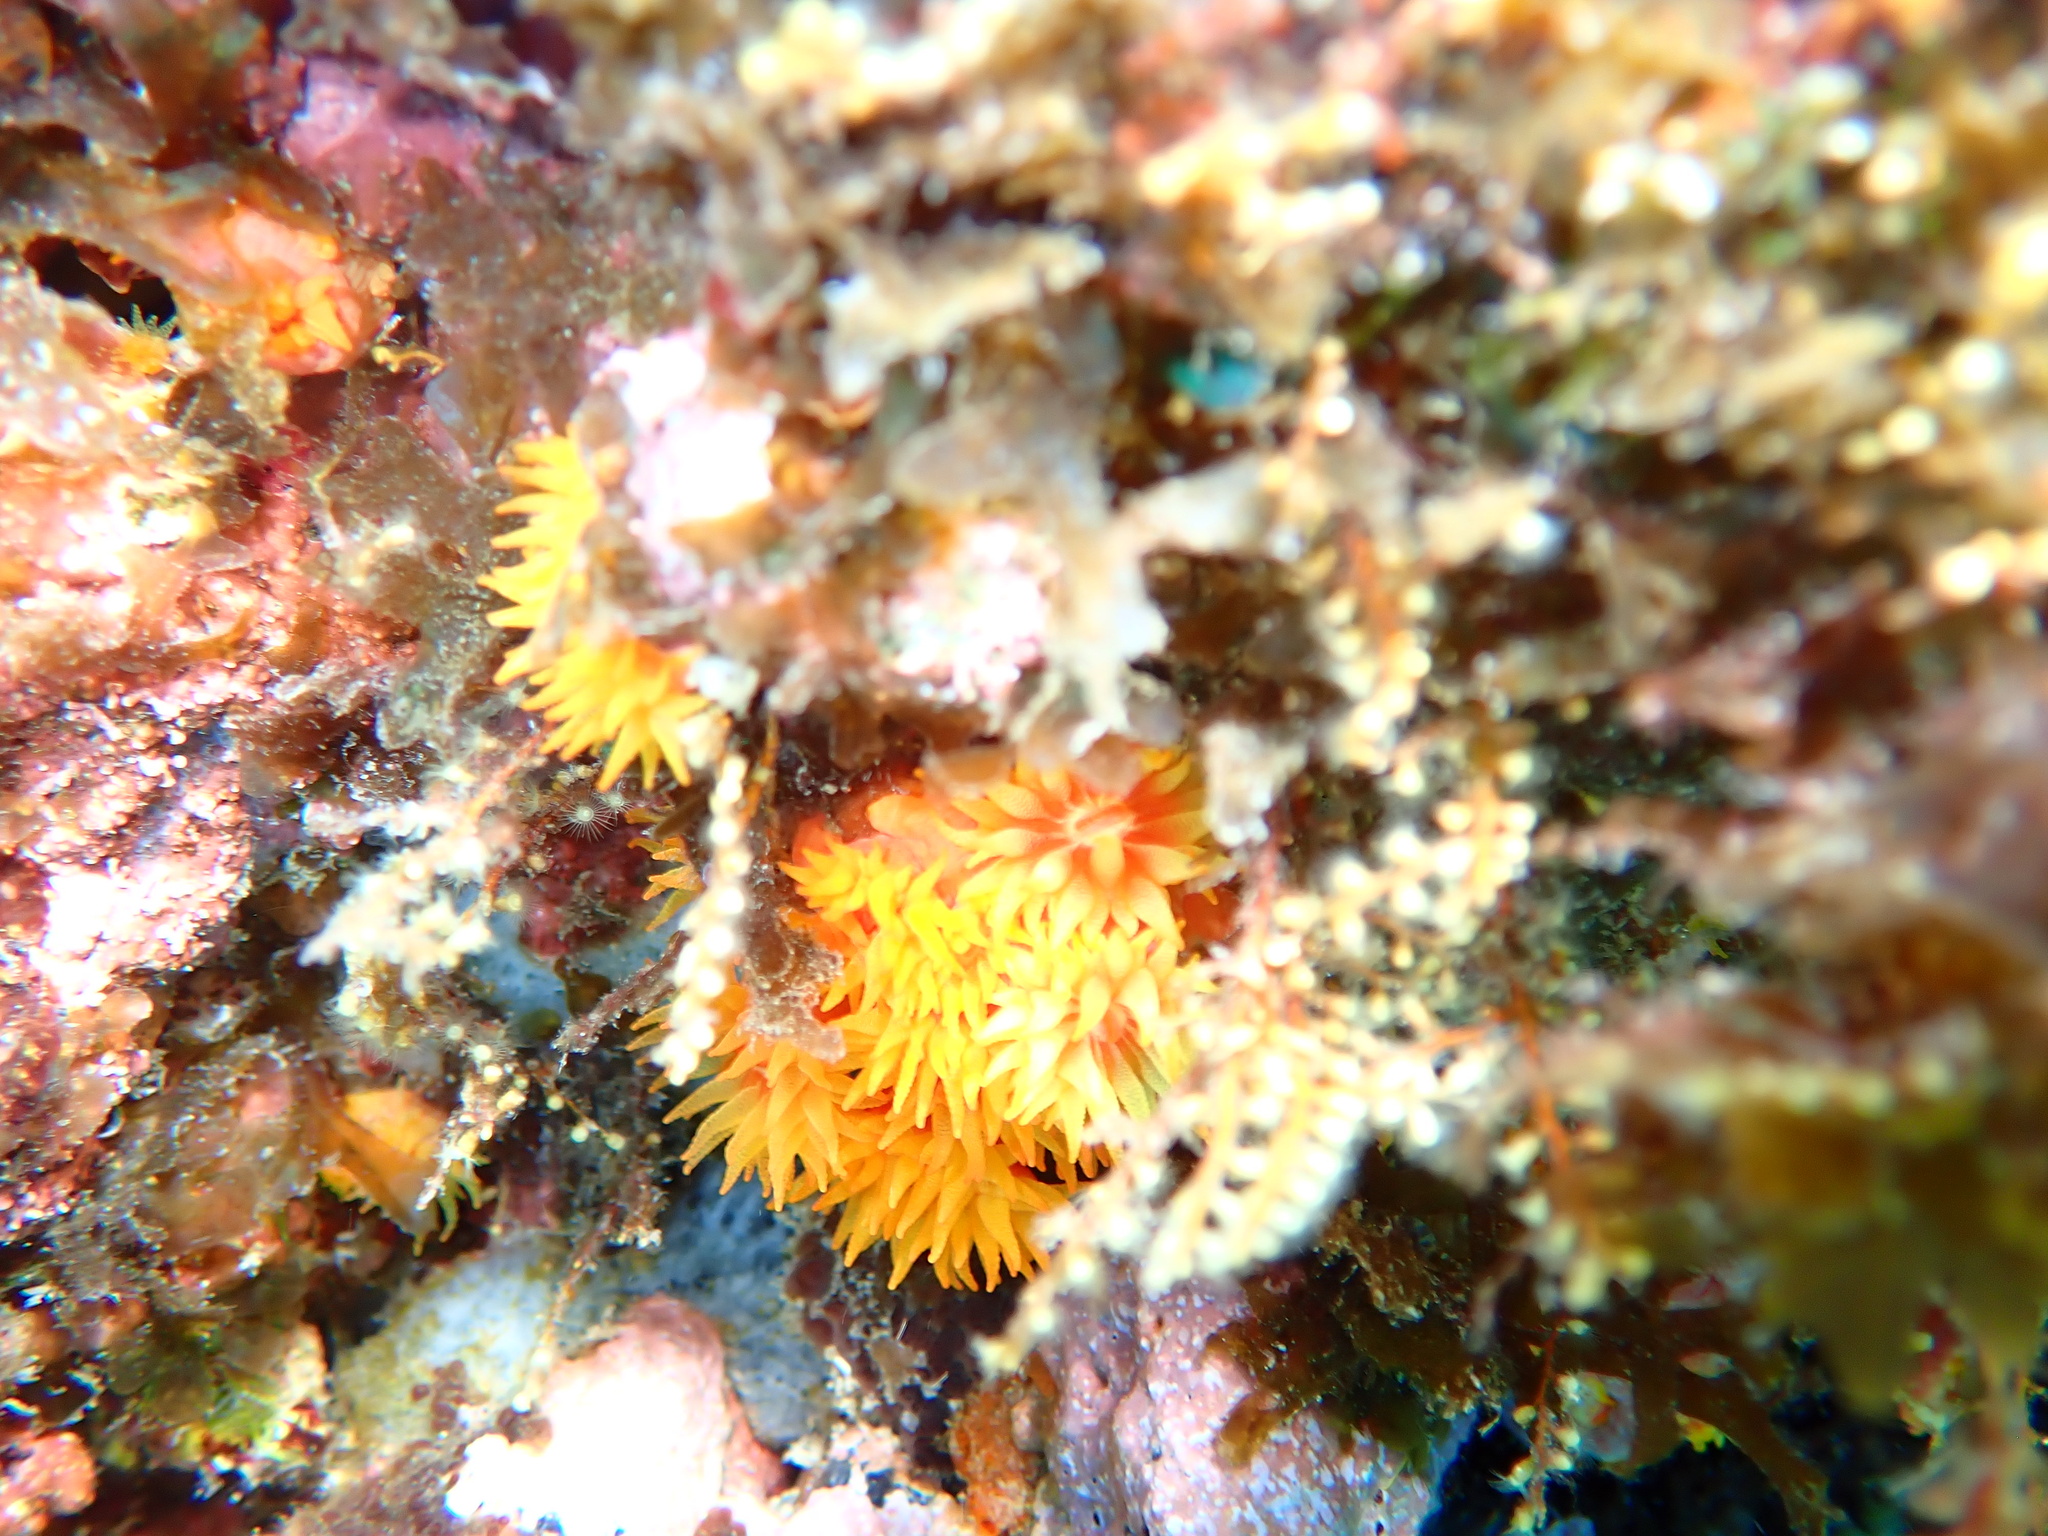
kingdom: Animalia
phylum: Cnidaria
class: Anthozoa
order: Scleractinia
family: Dendrophylliidae
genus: Tubastraea
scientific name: Tubastraea coccinea
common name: Orange cup coral
